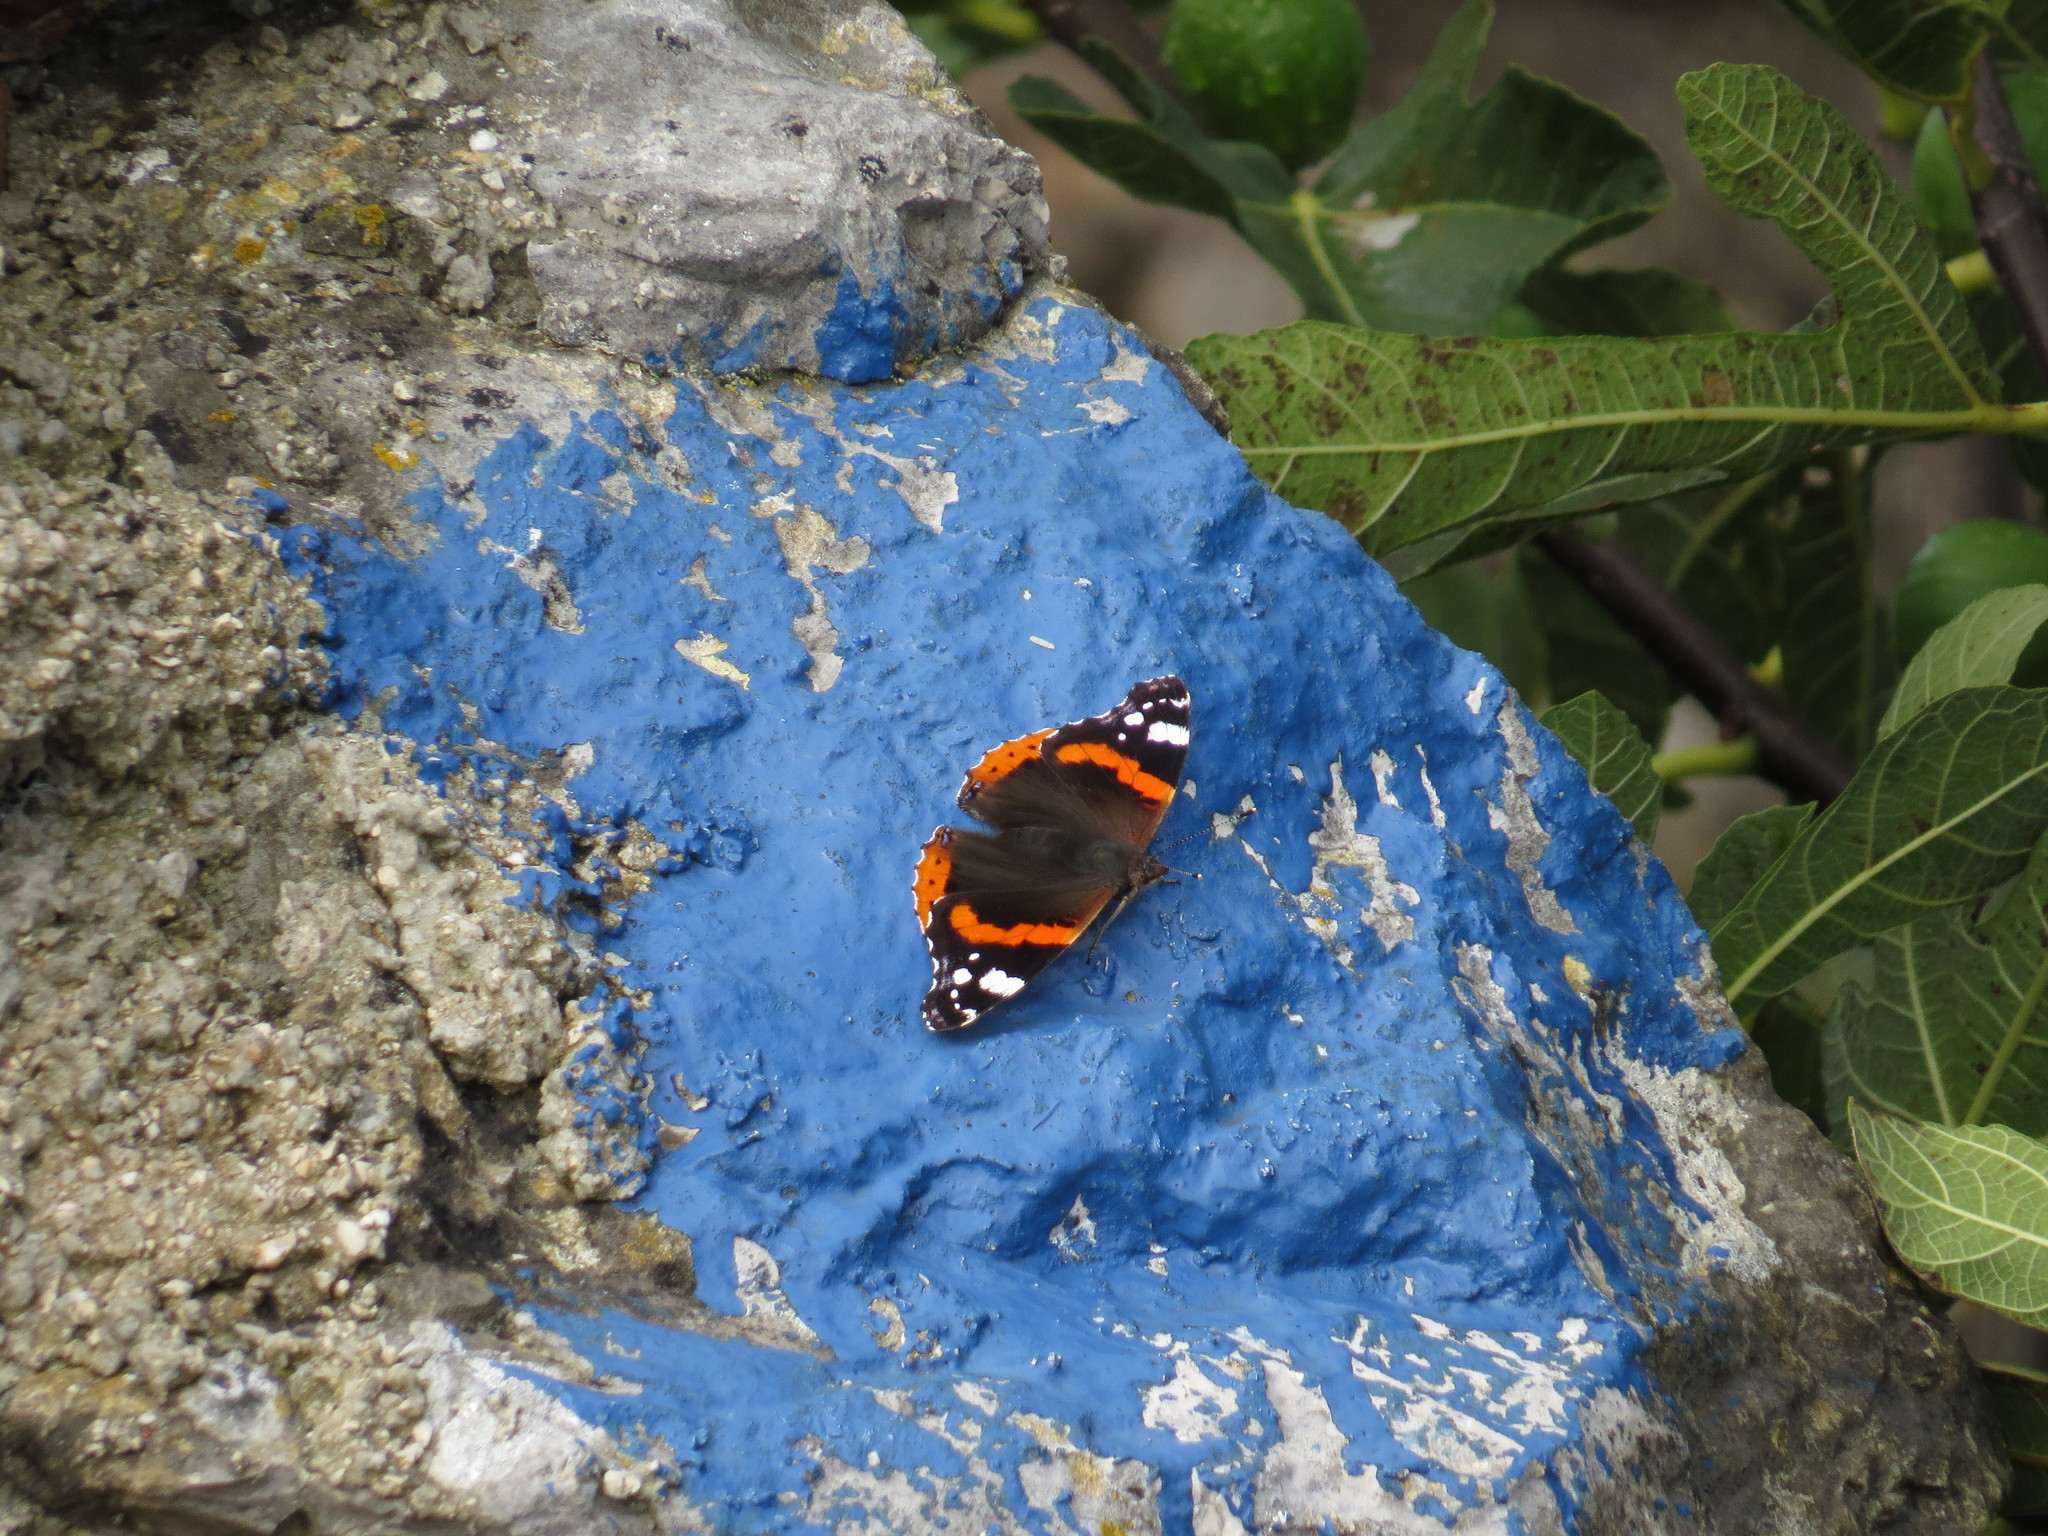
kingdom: Animalia
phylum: Arthropoda
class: Insecta
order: Lepidoptera
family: Nymphalidae
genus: Vanessa
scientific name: Vanessa atalanta
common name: Red admiral
